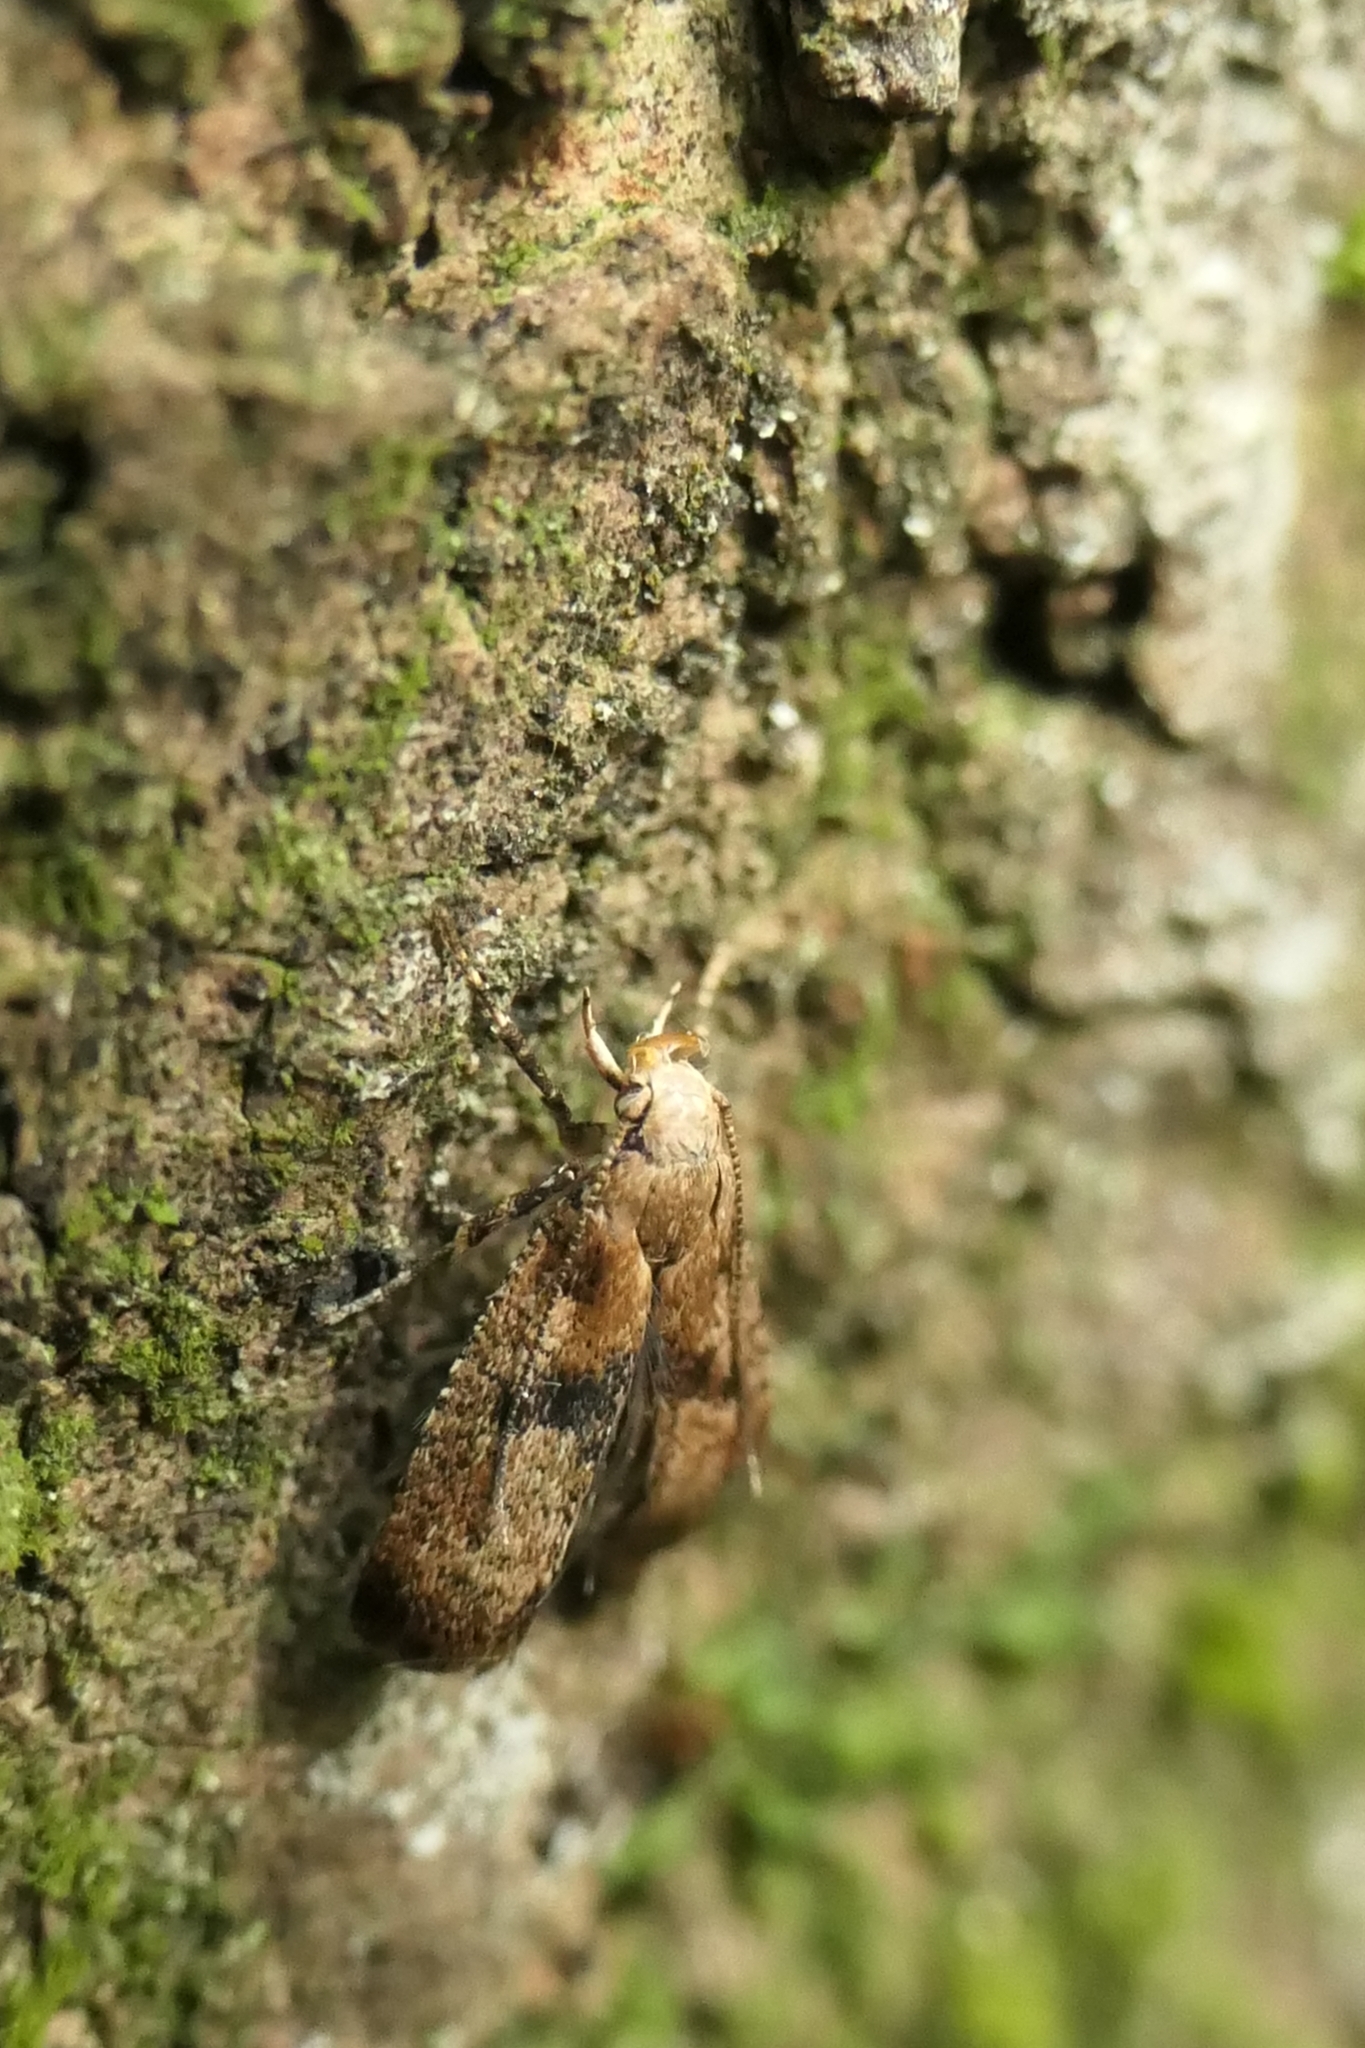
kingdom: Animalia
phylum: Arthropoda
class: Insecta
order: Lepidoptera
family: Gelechiidae
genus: Anisoplaca
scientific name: Anisoplaca acrodactyla
